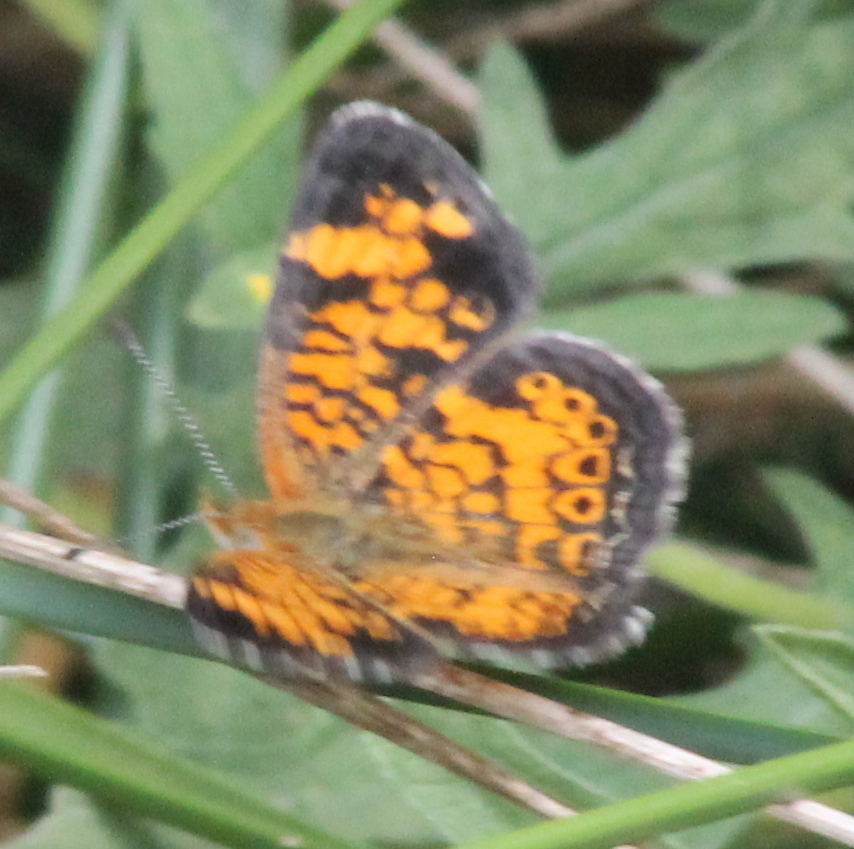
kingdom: Animalia
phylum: Arthropoda
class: Insecta
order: Lepidoptera
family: Nymphalidae
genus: Phyciodes
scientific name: Phyciodes tharos
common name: Pearl crescent
